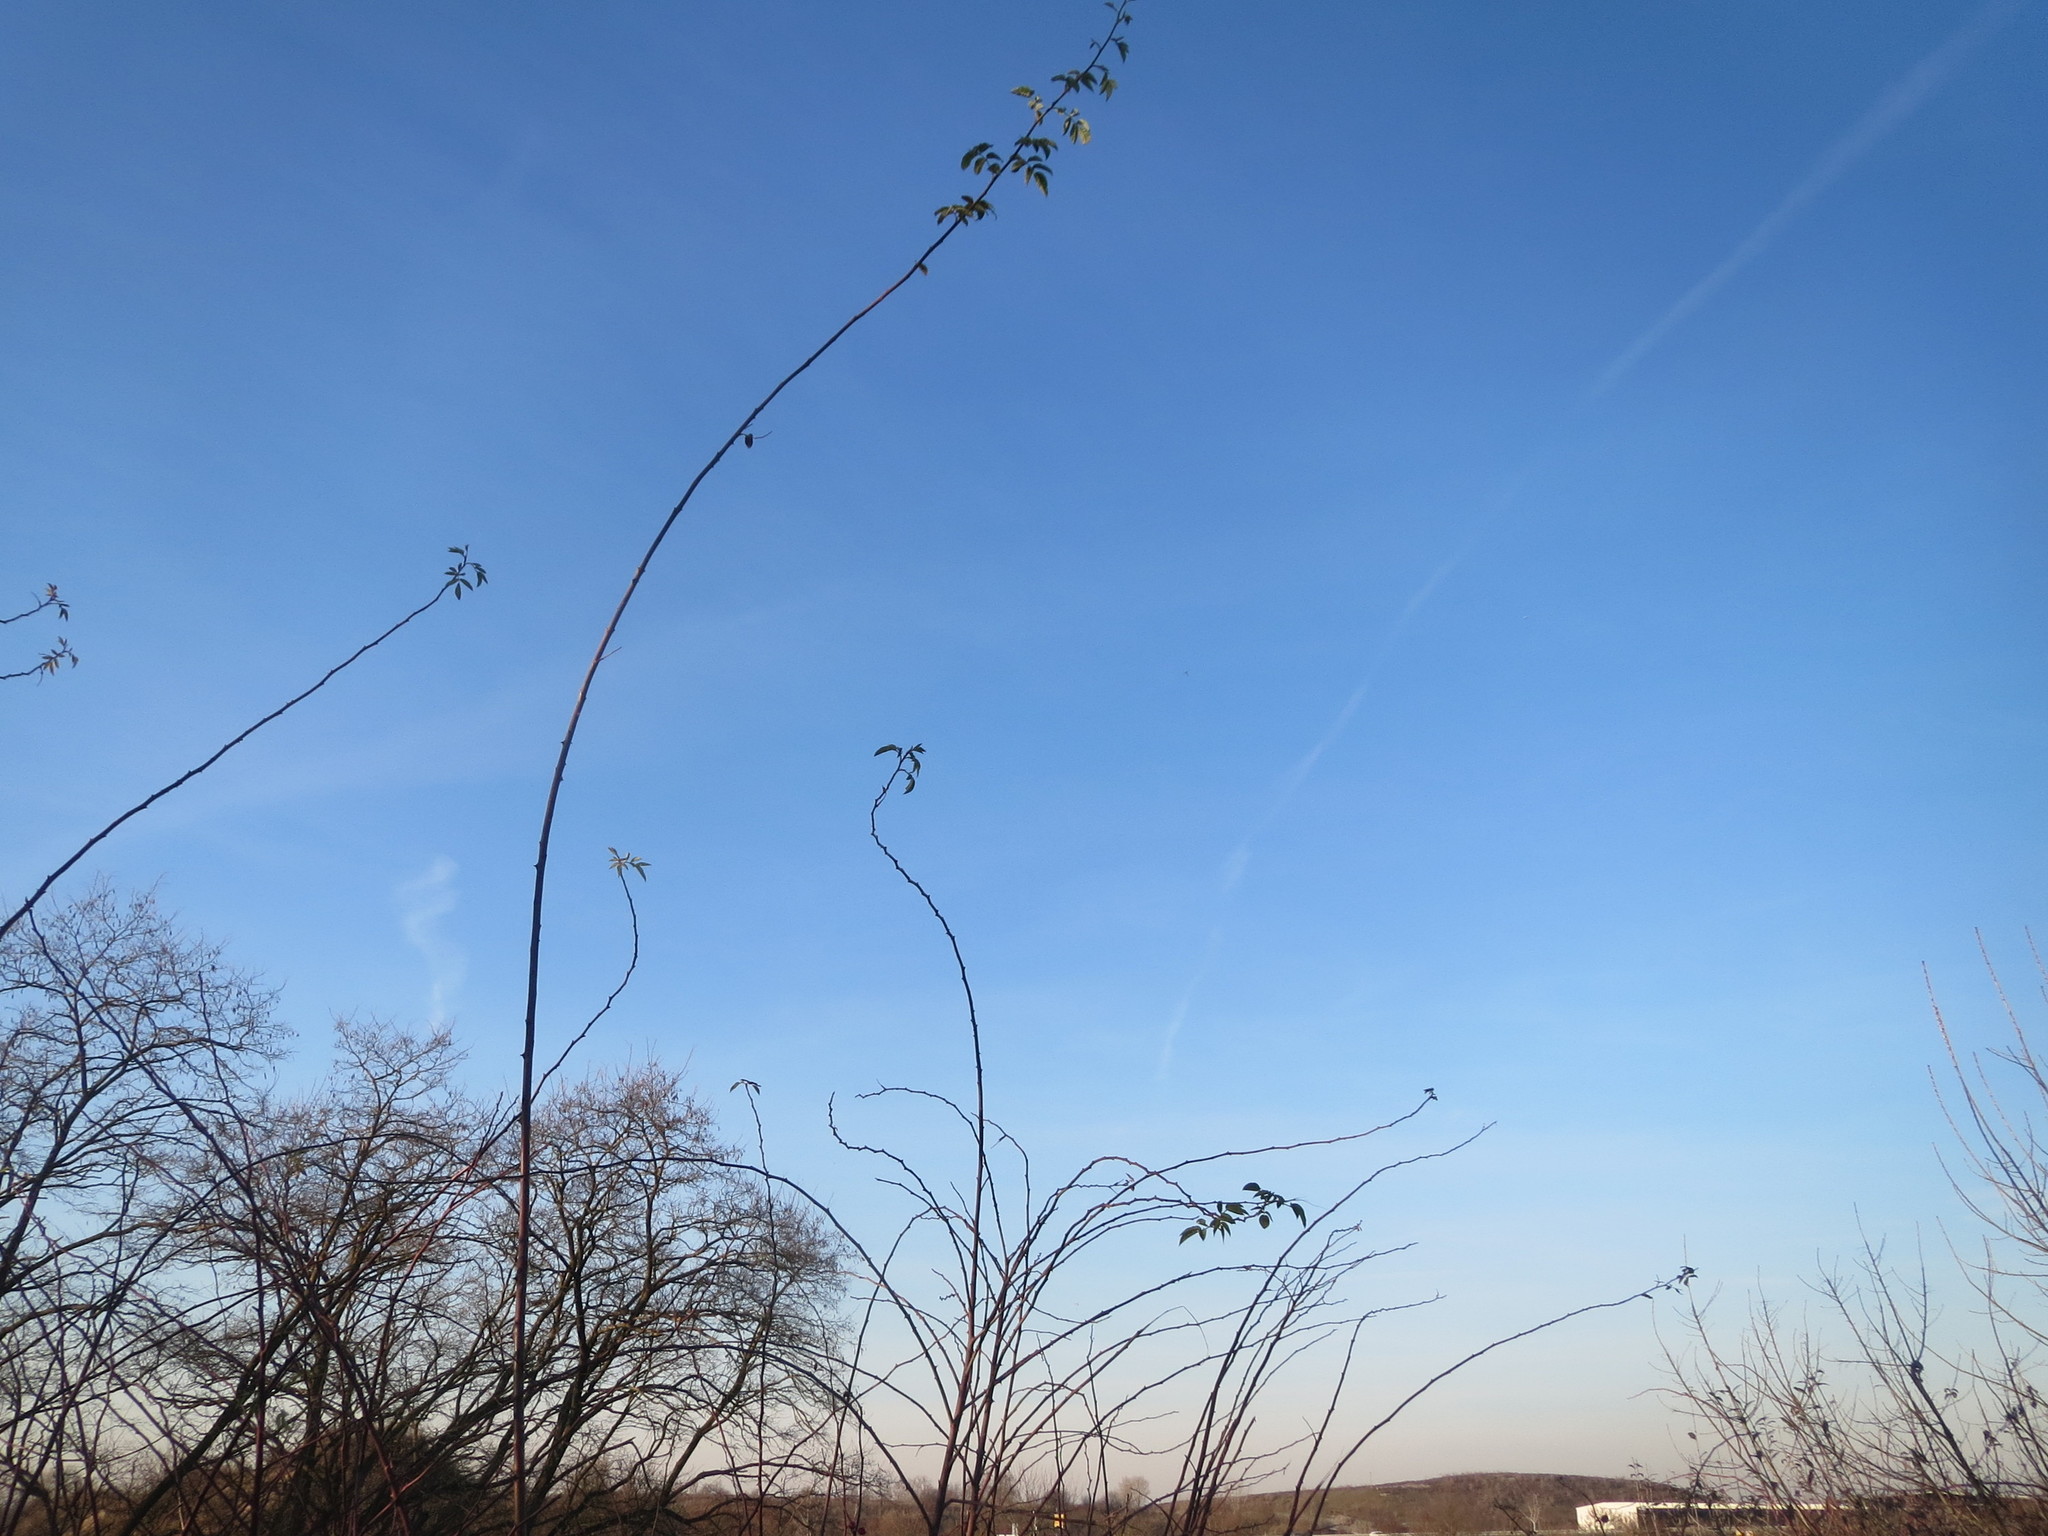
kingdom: Plantae
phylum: Tracheophyta
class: Magnoliopsida
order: Rosales
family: Rosaceae
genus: Rosa
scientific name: Rosa canina
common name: Dog rose
